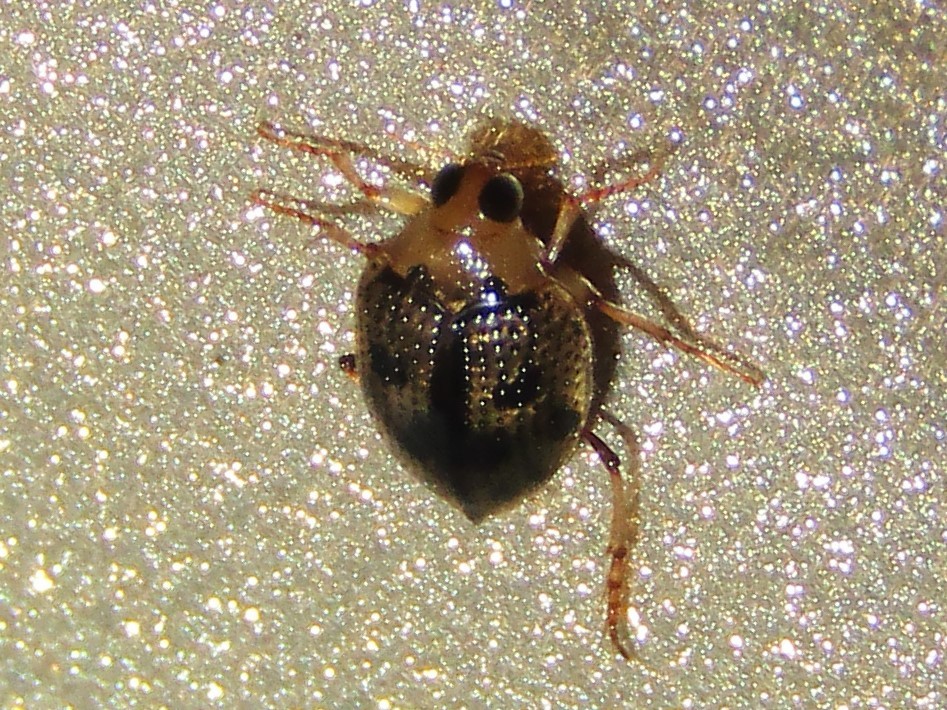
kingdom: Animalia
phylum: Arthropoda
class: Insecta
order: Coleoptera
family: Haliplidae
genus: Peltodytes
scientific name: Peltodytes
